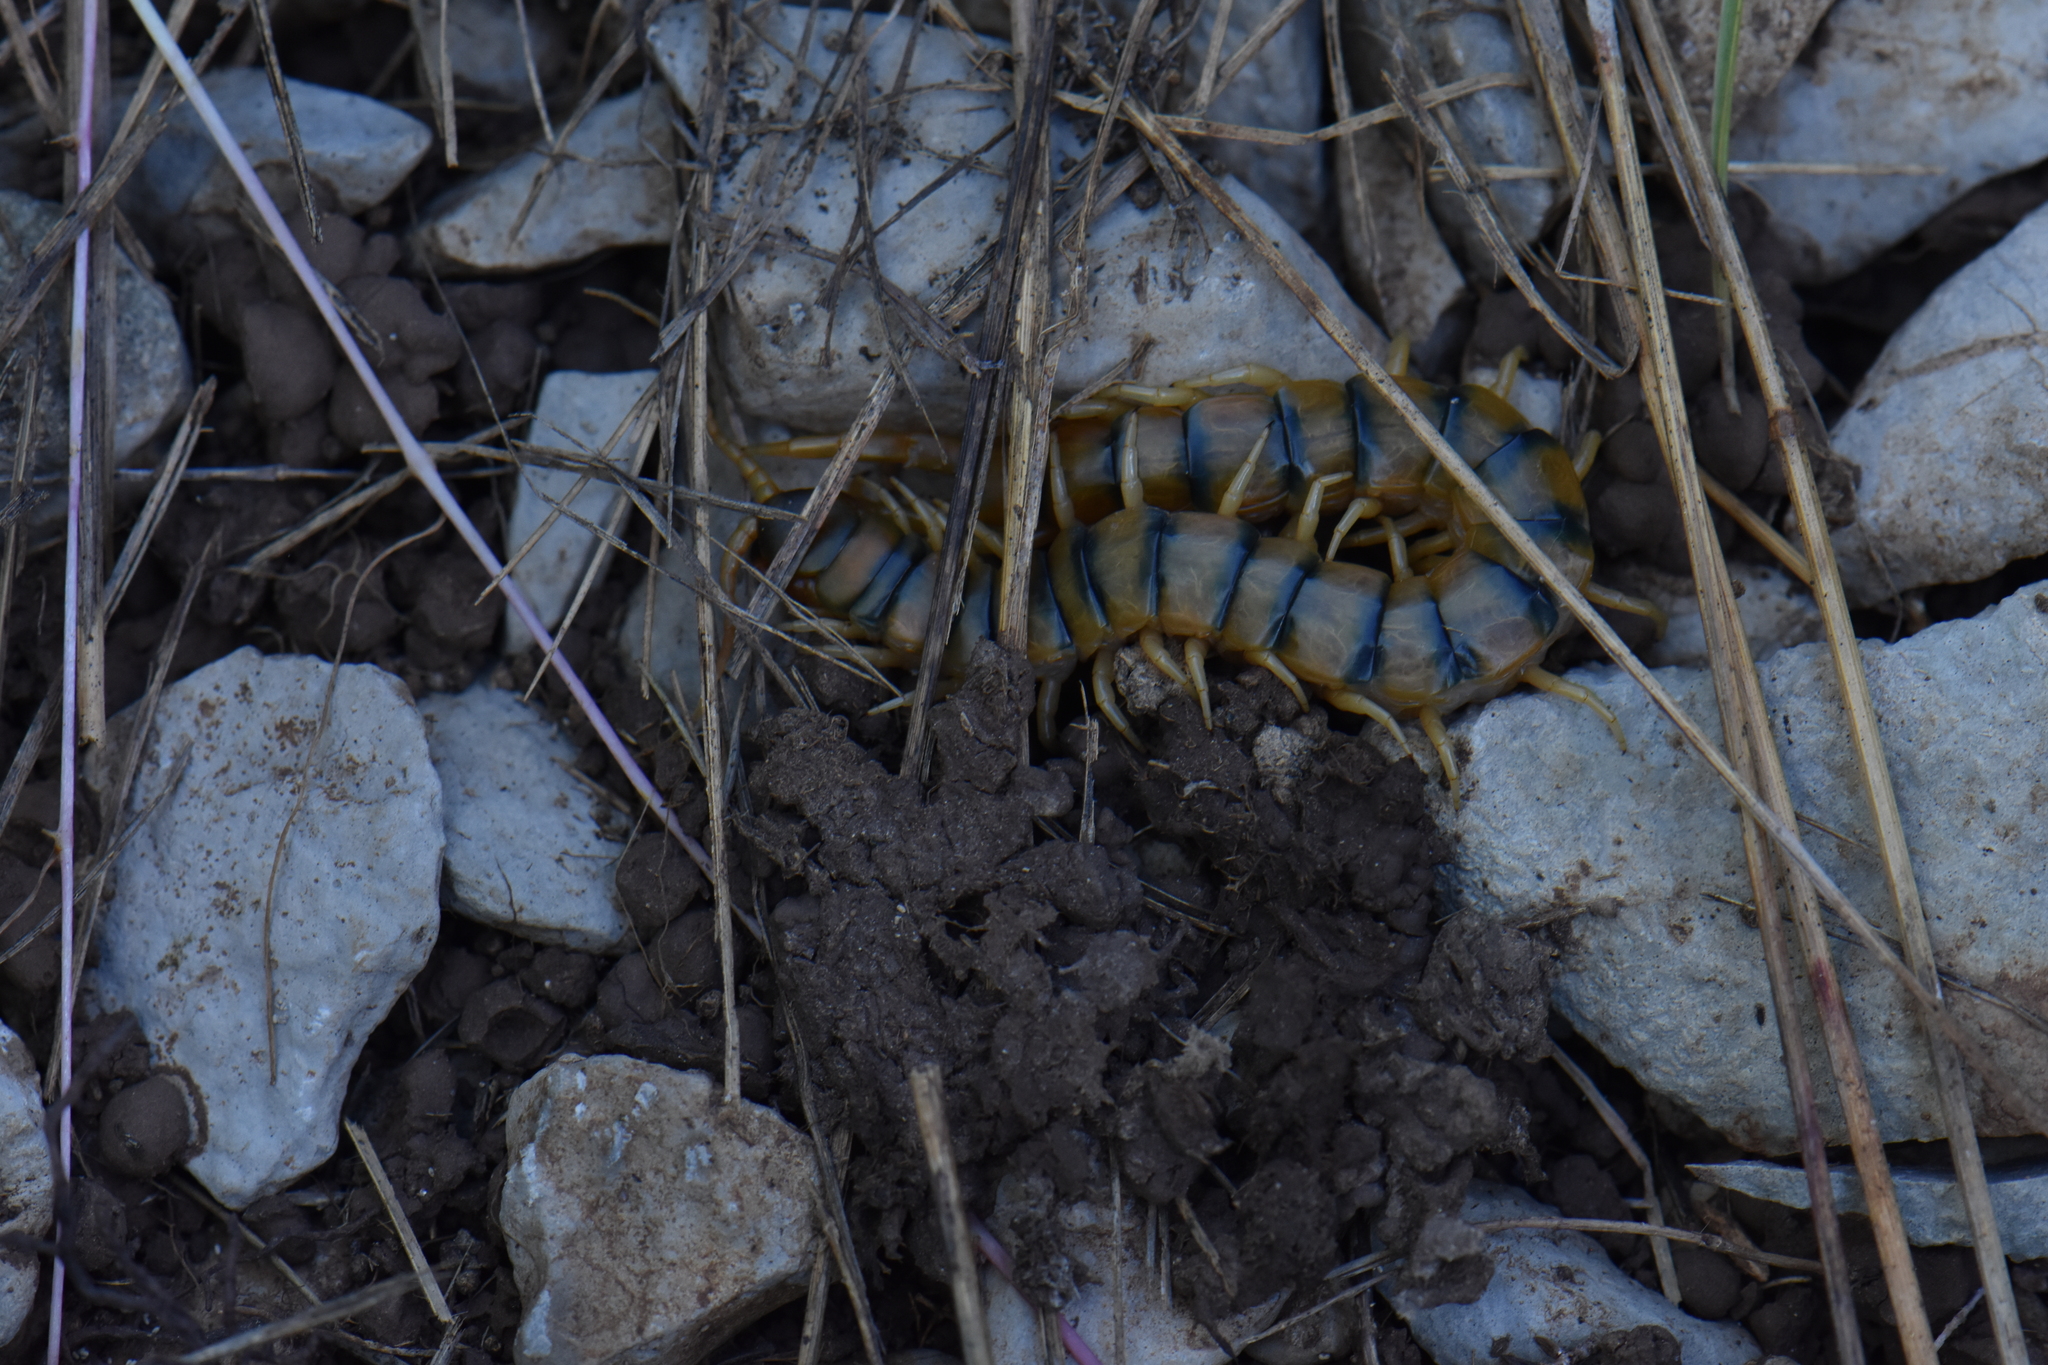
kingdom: Animalia
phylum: Arthropoda
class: Chilopoda
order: Scolopendromorpha
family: Scolopendridae
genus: Scolopendra
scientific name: Scolopendra cingulata
